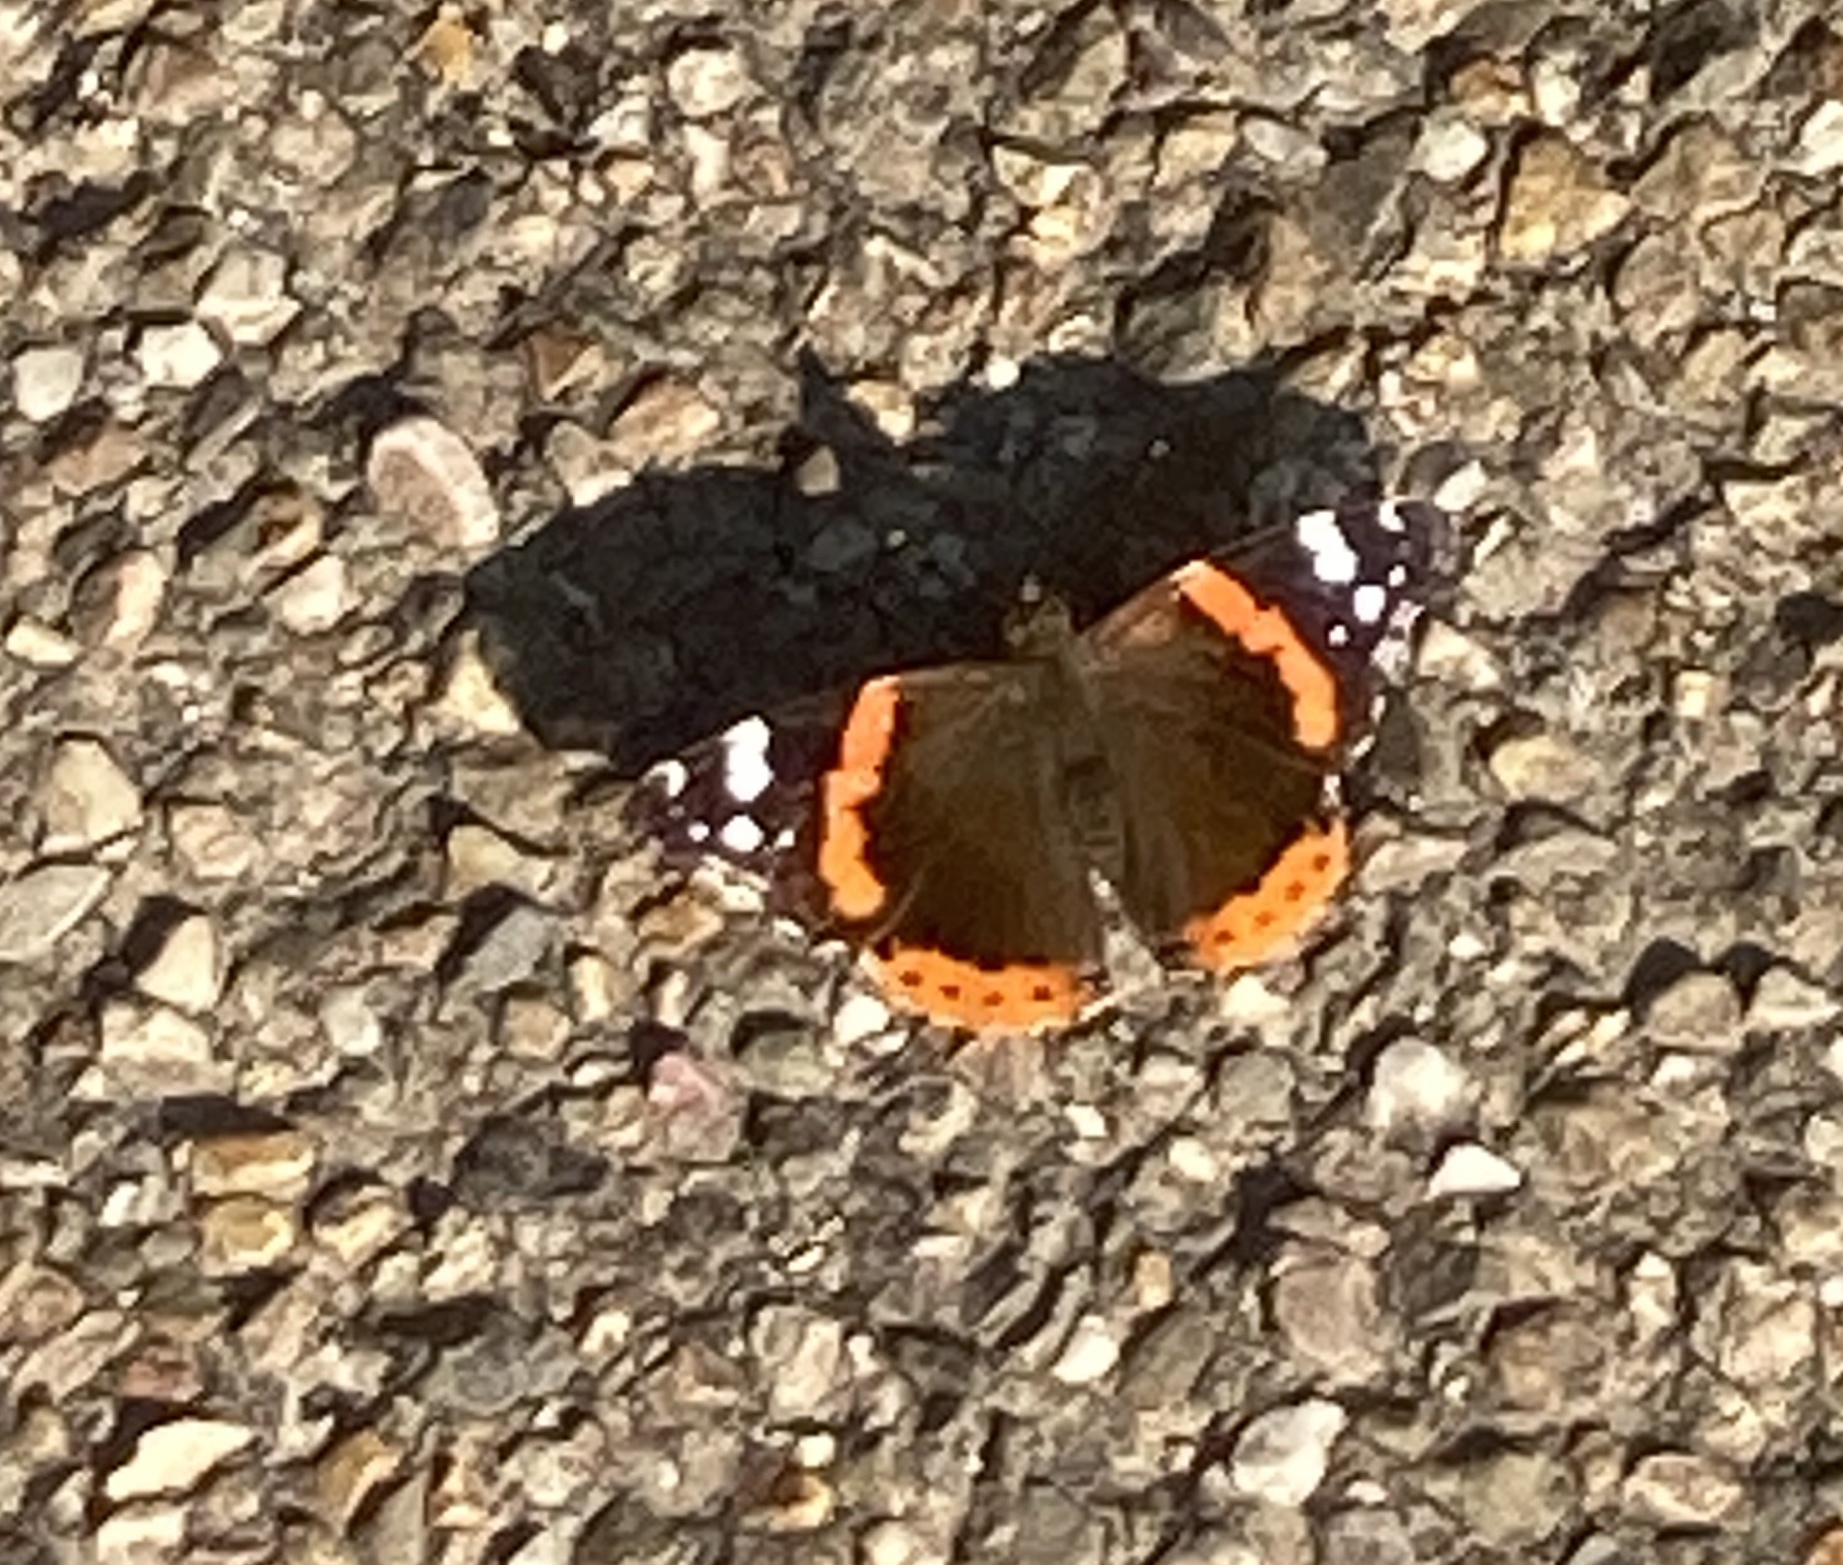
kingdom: Animalia
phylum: Arthropoda
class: Insecta
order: Lepidoptera
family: Nymphalidae
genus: Vanessa
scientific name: Vanessa atalanta
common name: Red admiral
